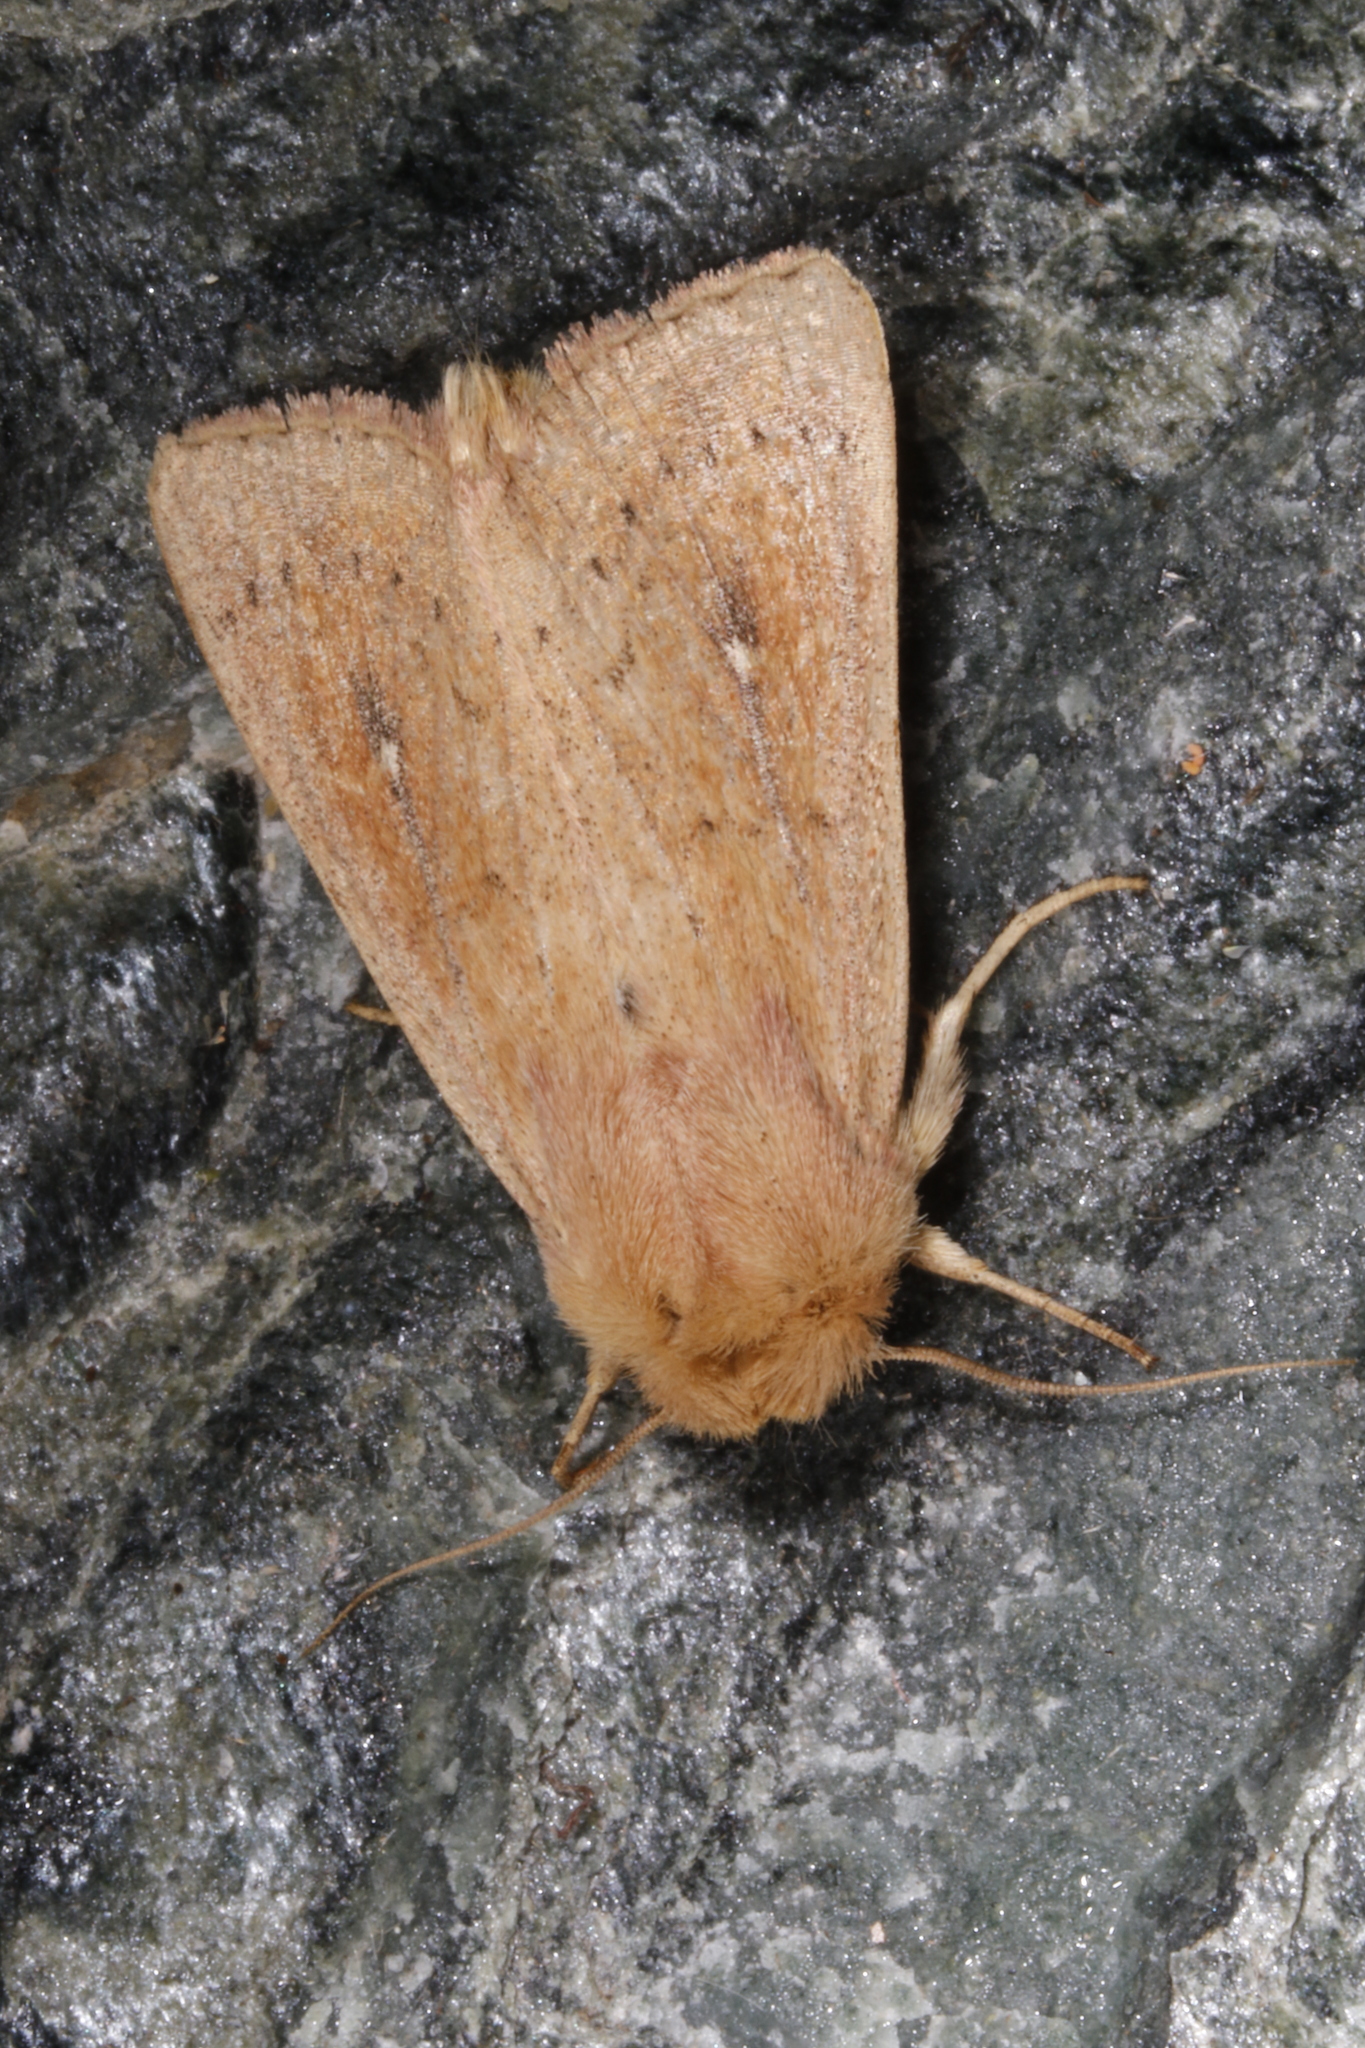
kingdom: Animalia
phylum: Arthropoda
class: Insecta
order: Lepidoptera
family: Noctuidae
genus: Mythimna
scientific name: Mythimna ferrago
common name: Clay
